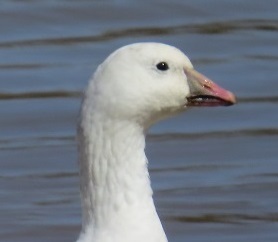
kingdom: Animalia
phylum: Chordata
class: Aves
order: Anseriformes
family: Anatidae
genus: Anser
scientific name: Anser rossii
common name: Ross's goose
